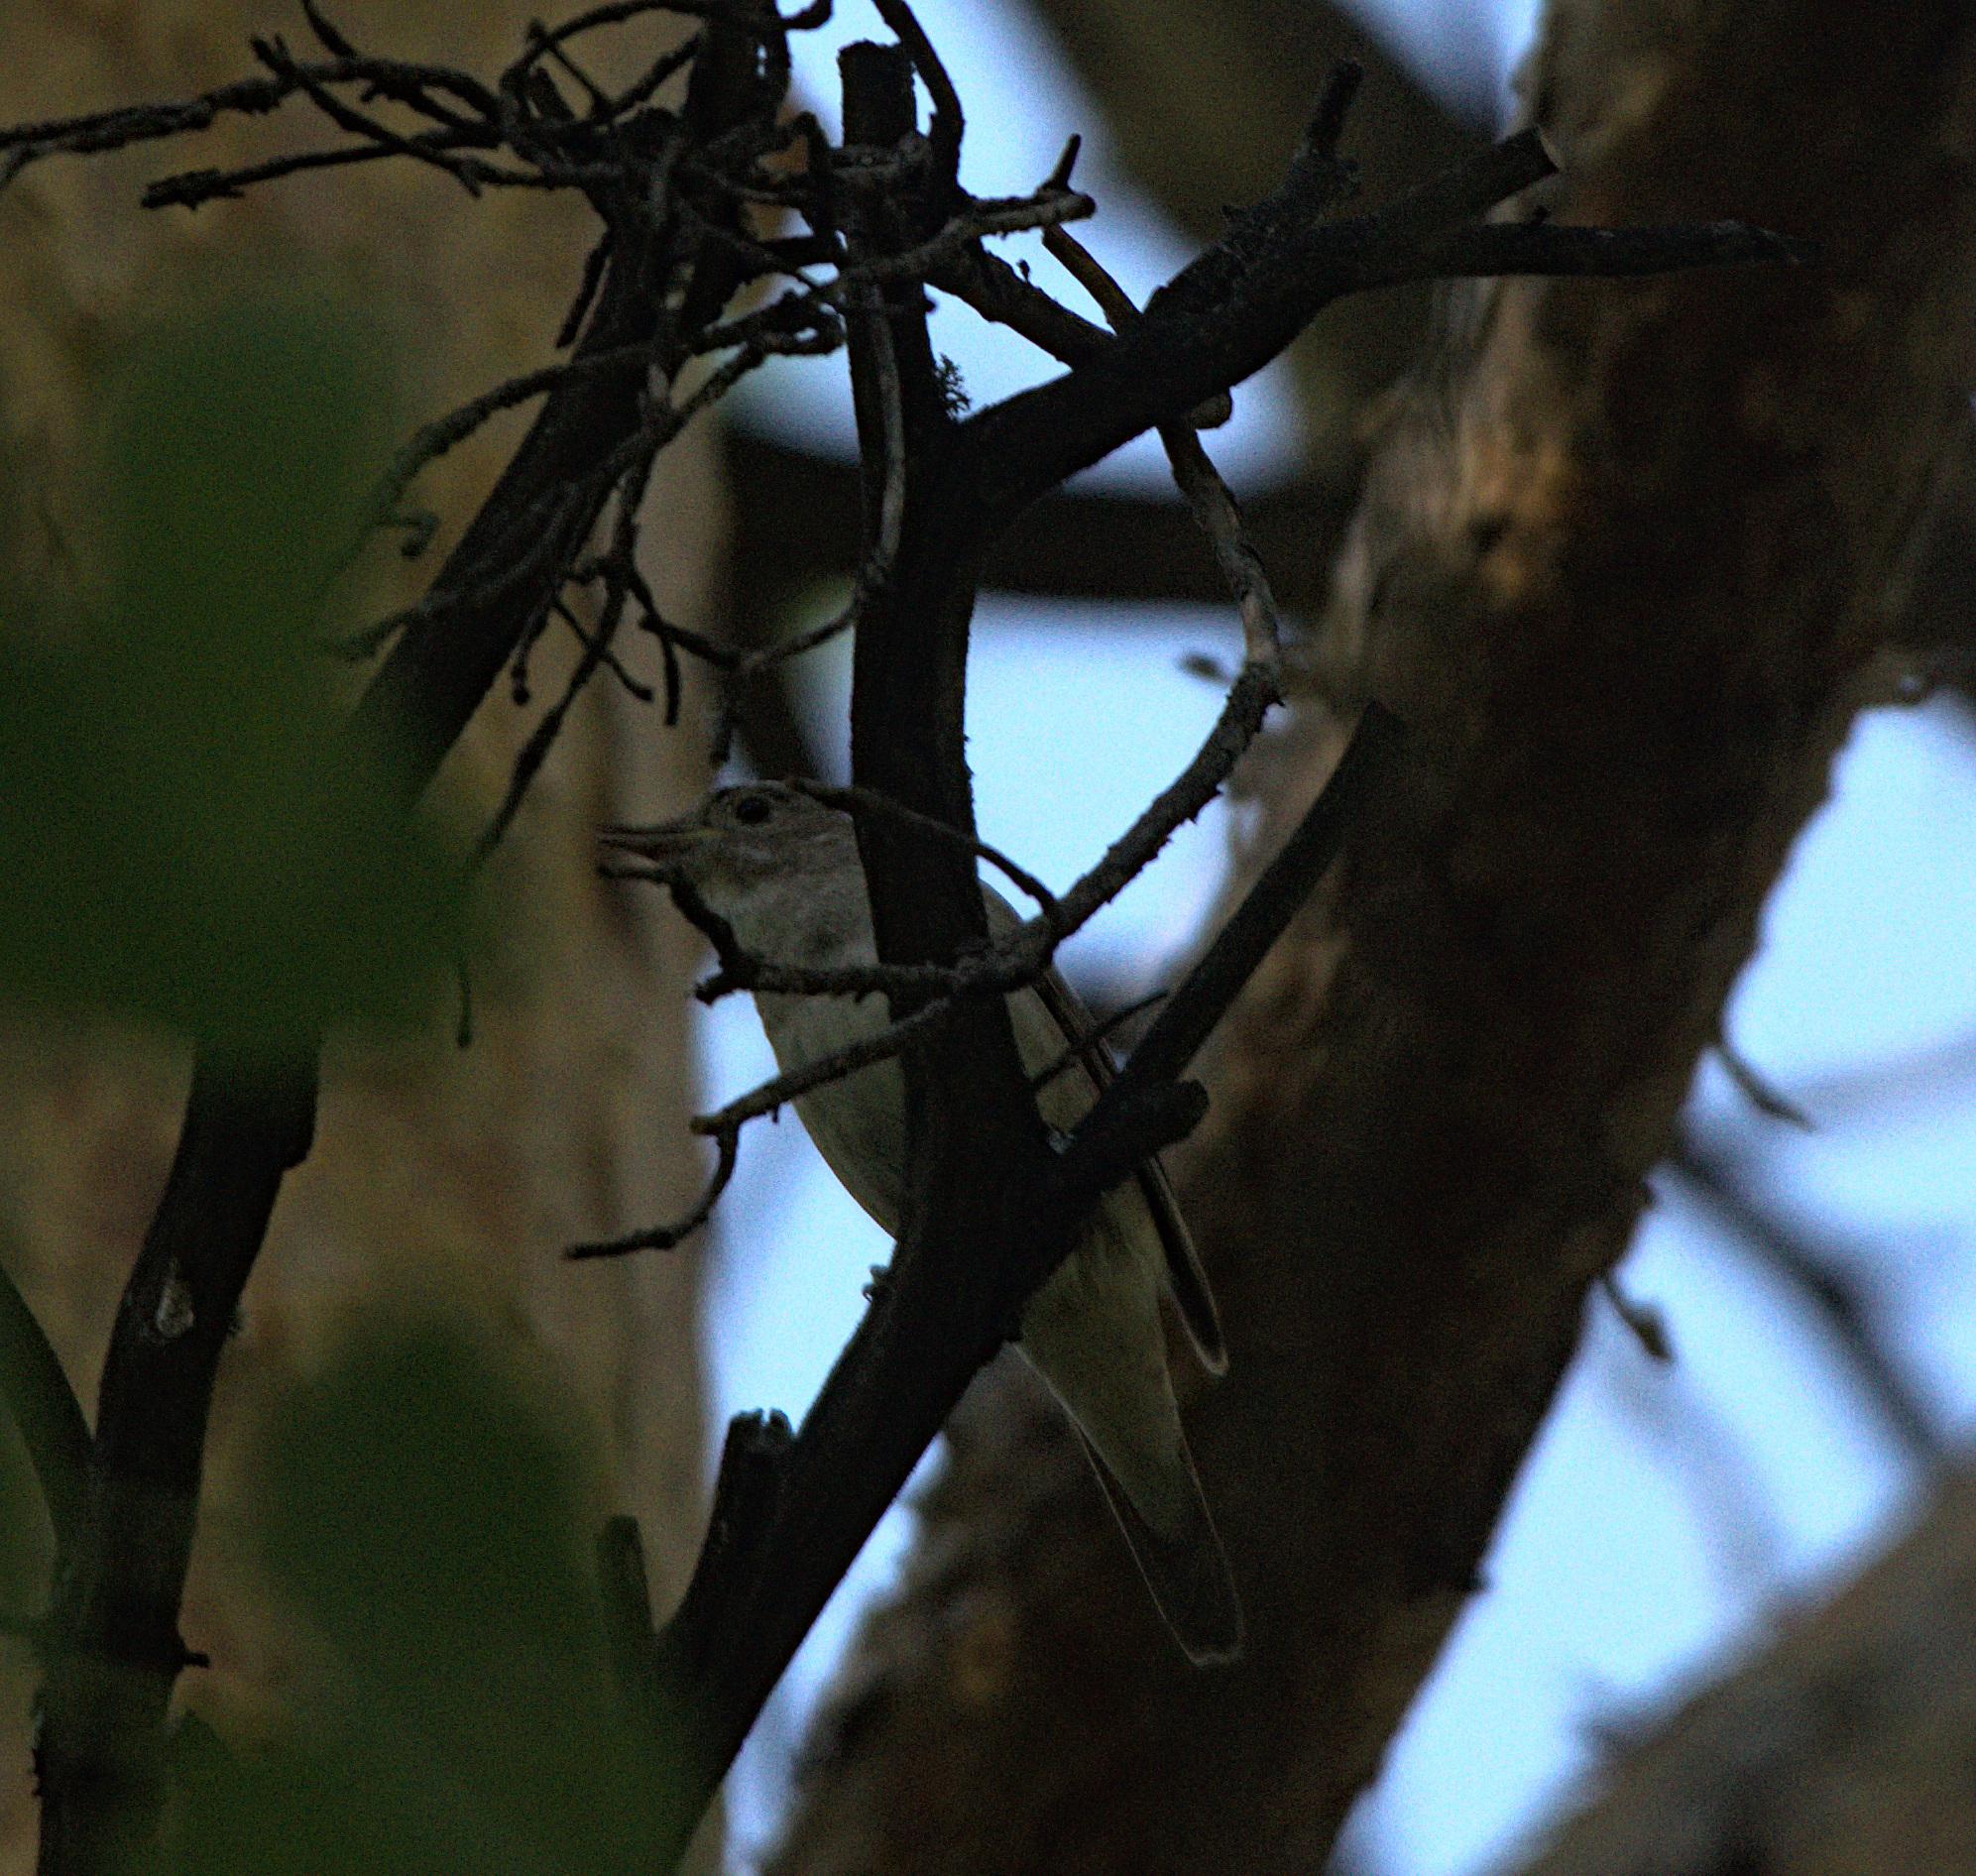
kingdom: Animalia
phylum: Chordata
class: Aves
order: Passeriformes
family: Muscicapidae
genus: Luscinia
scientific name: Luscinia luscinia
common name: Thrush nightingale
